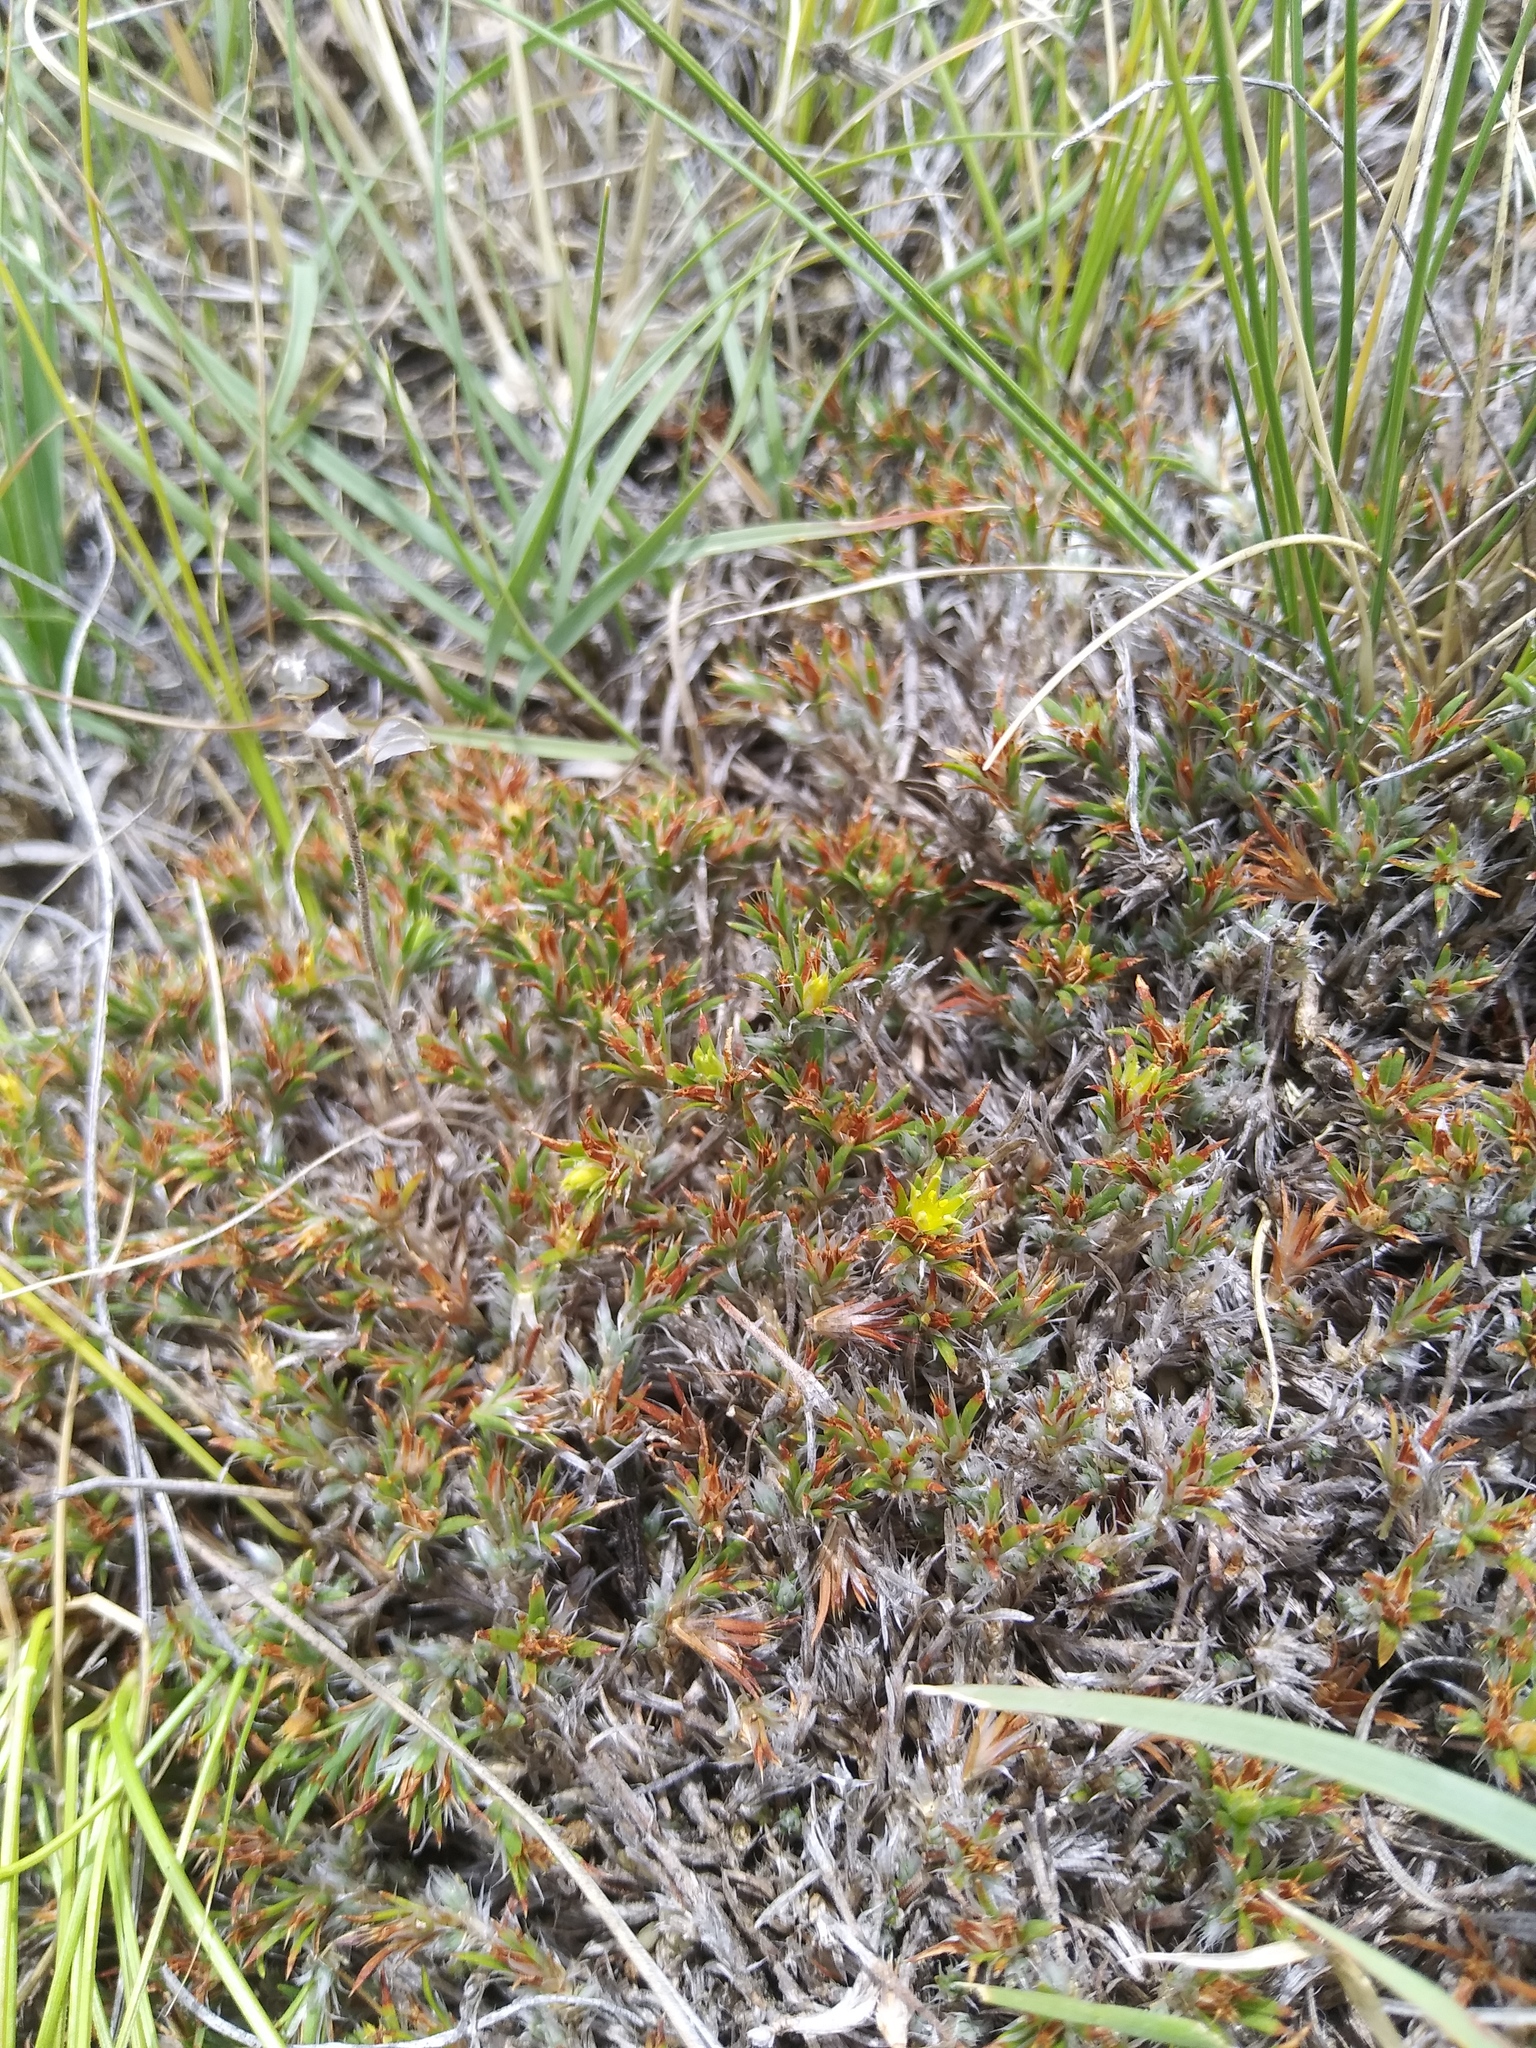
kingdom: Plantae
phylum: Tracheophyta
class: Magnoliopsida
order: Caryophyllales
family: Caryophyllaceae
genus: Paronychia
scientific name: Paronychia sessiliflora
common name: Creeping nailwort
